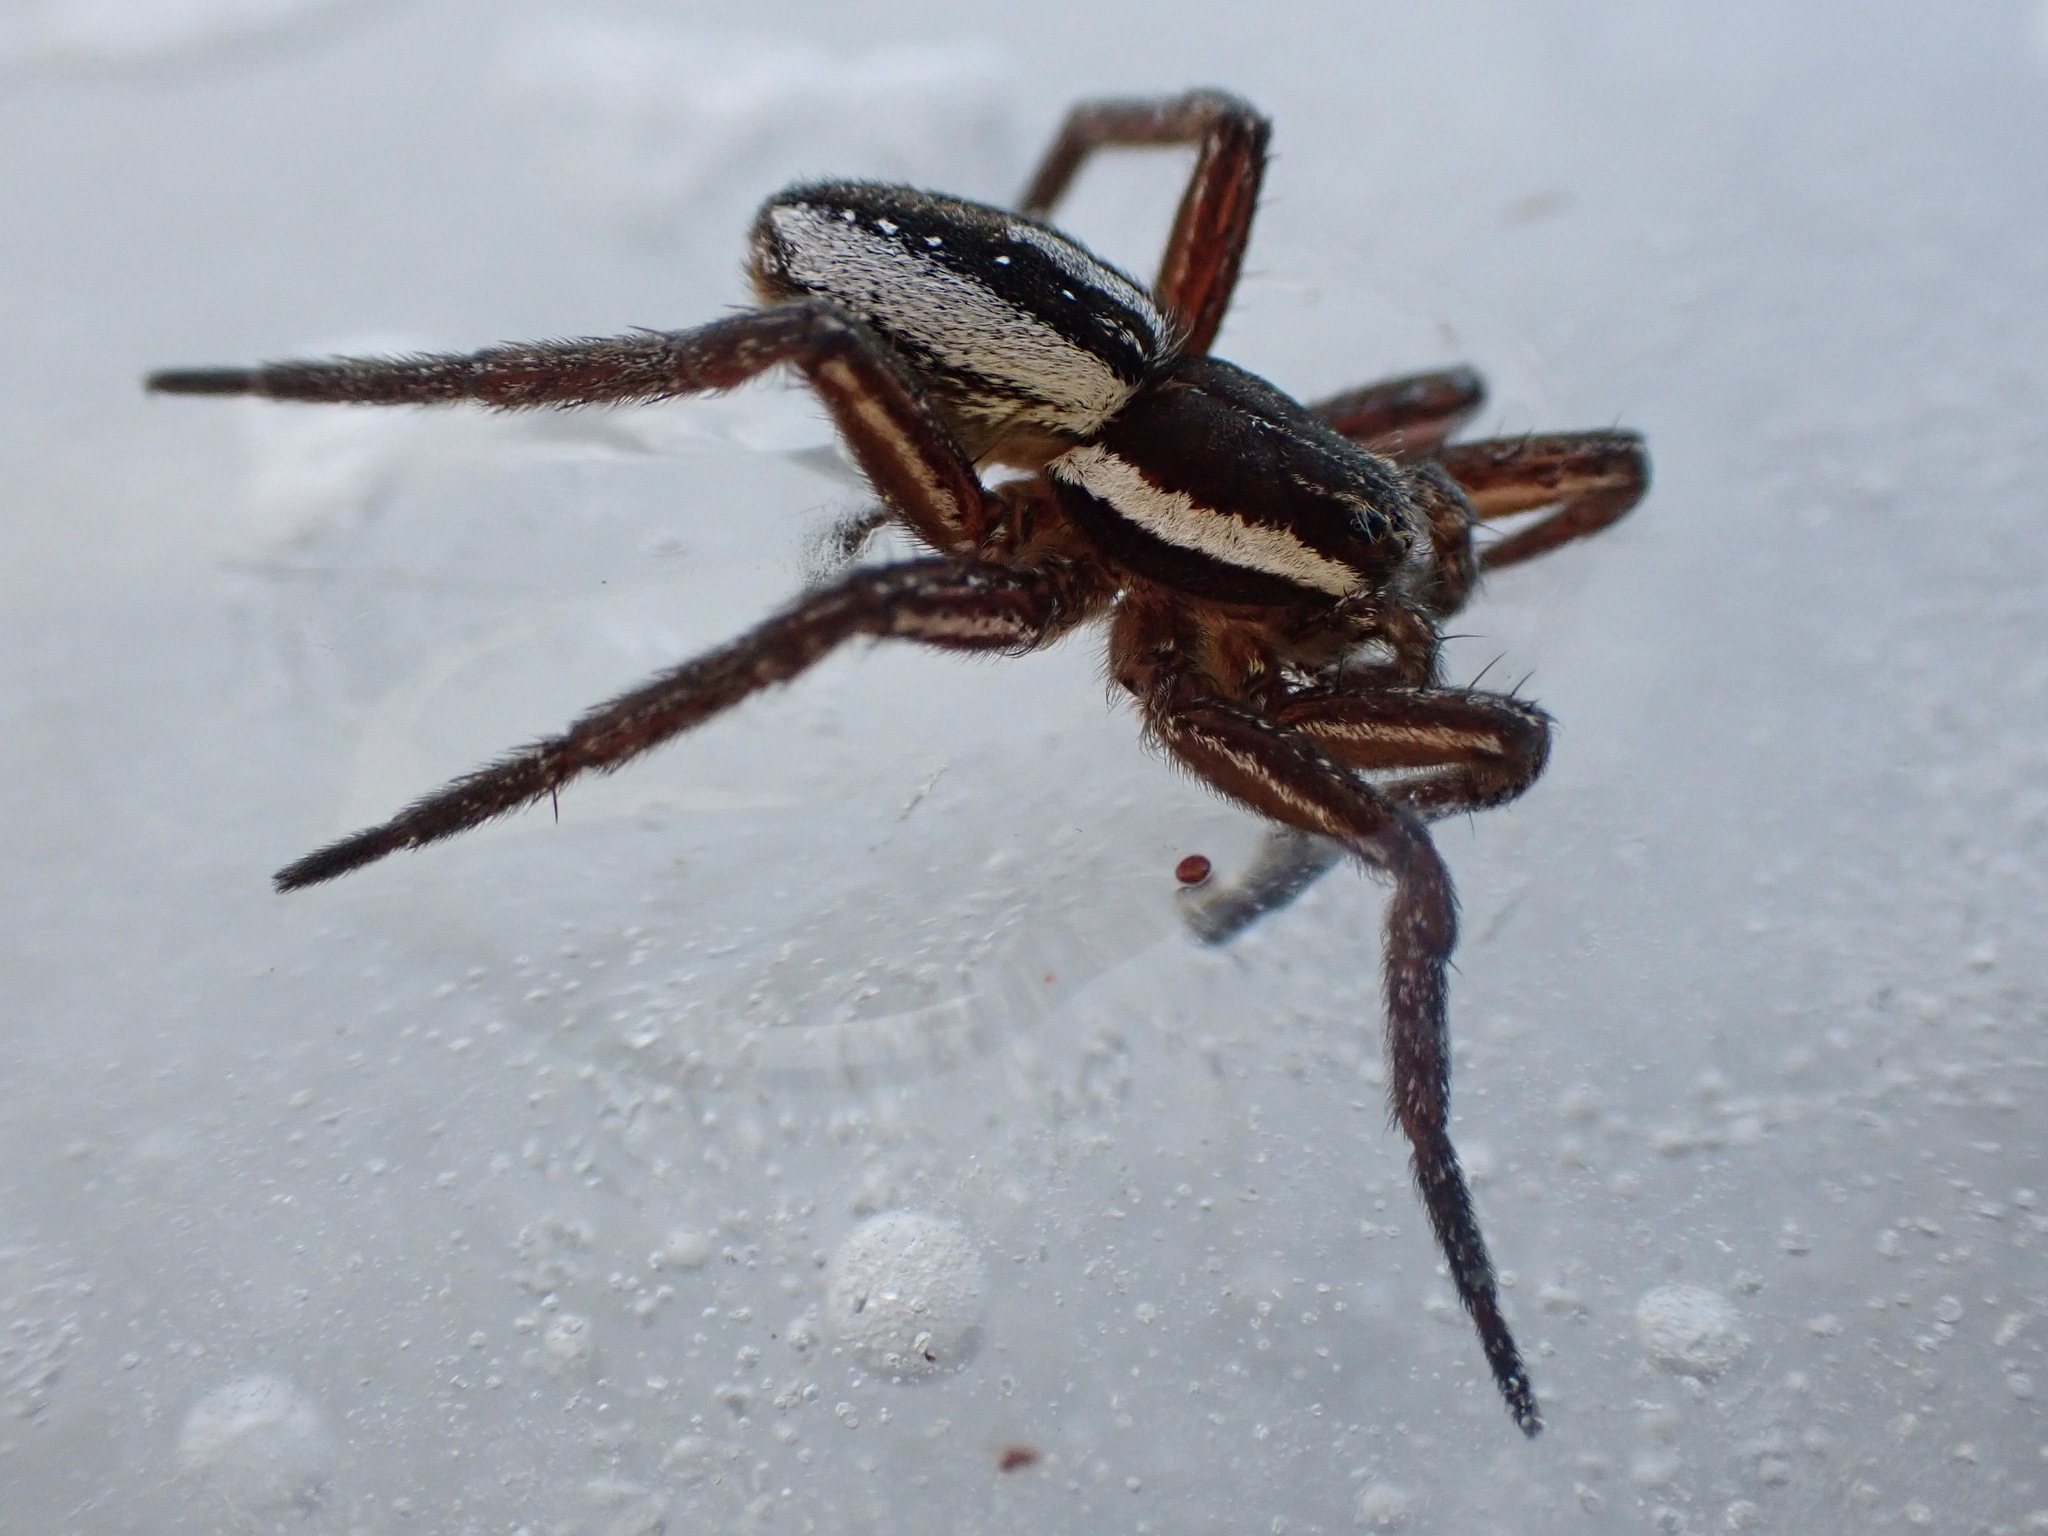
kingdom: Animalia
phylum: Arthropoda
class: Arachnida
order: Araneae
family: Pisauridae
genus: Dolomedes
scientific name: Dolomedes triton
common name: Six-spotted fishing spider
